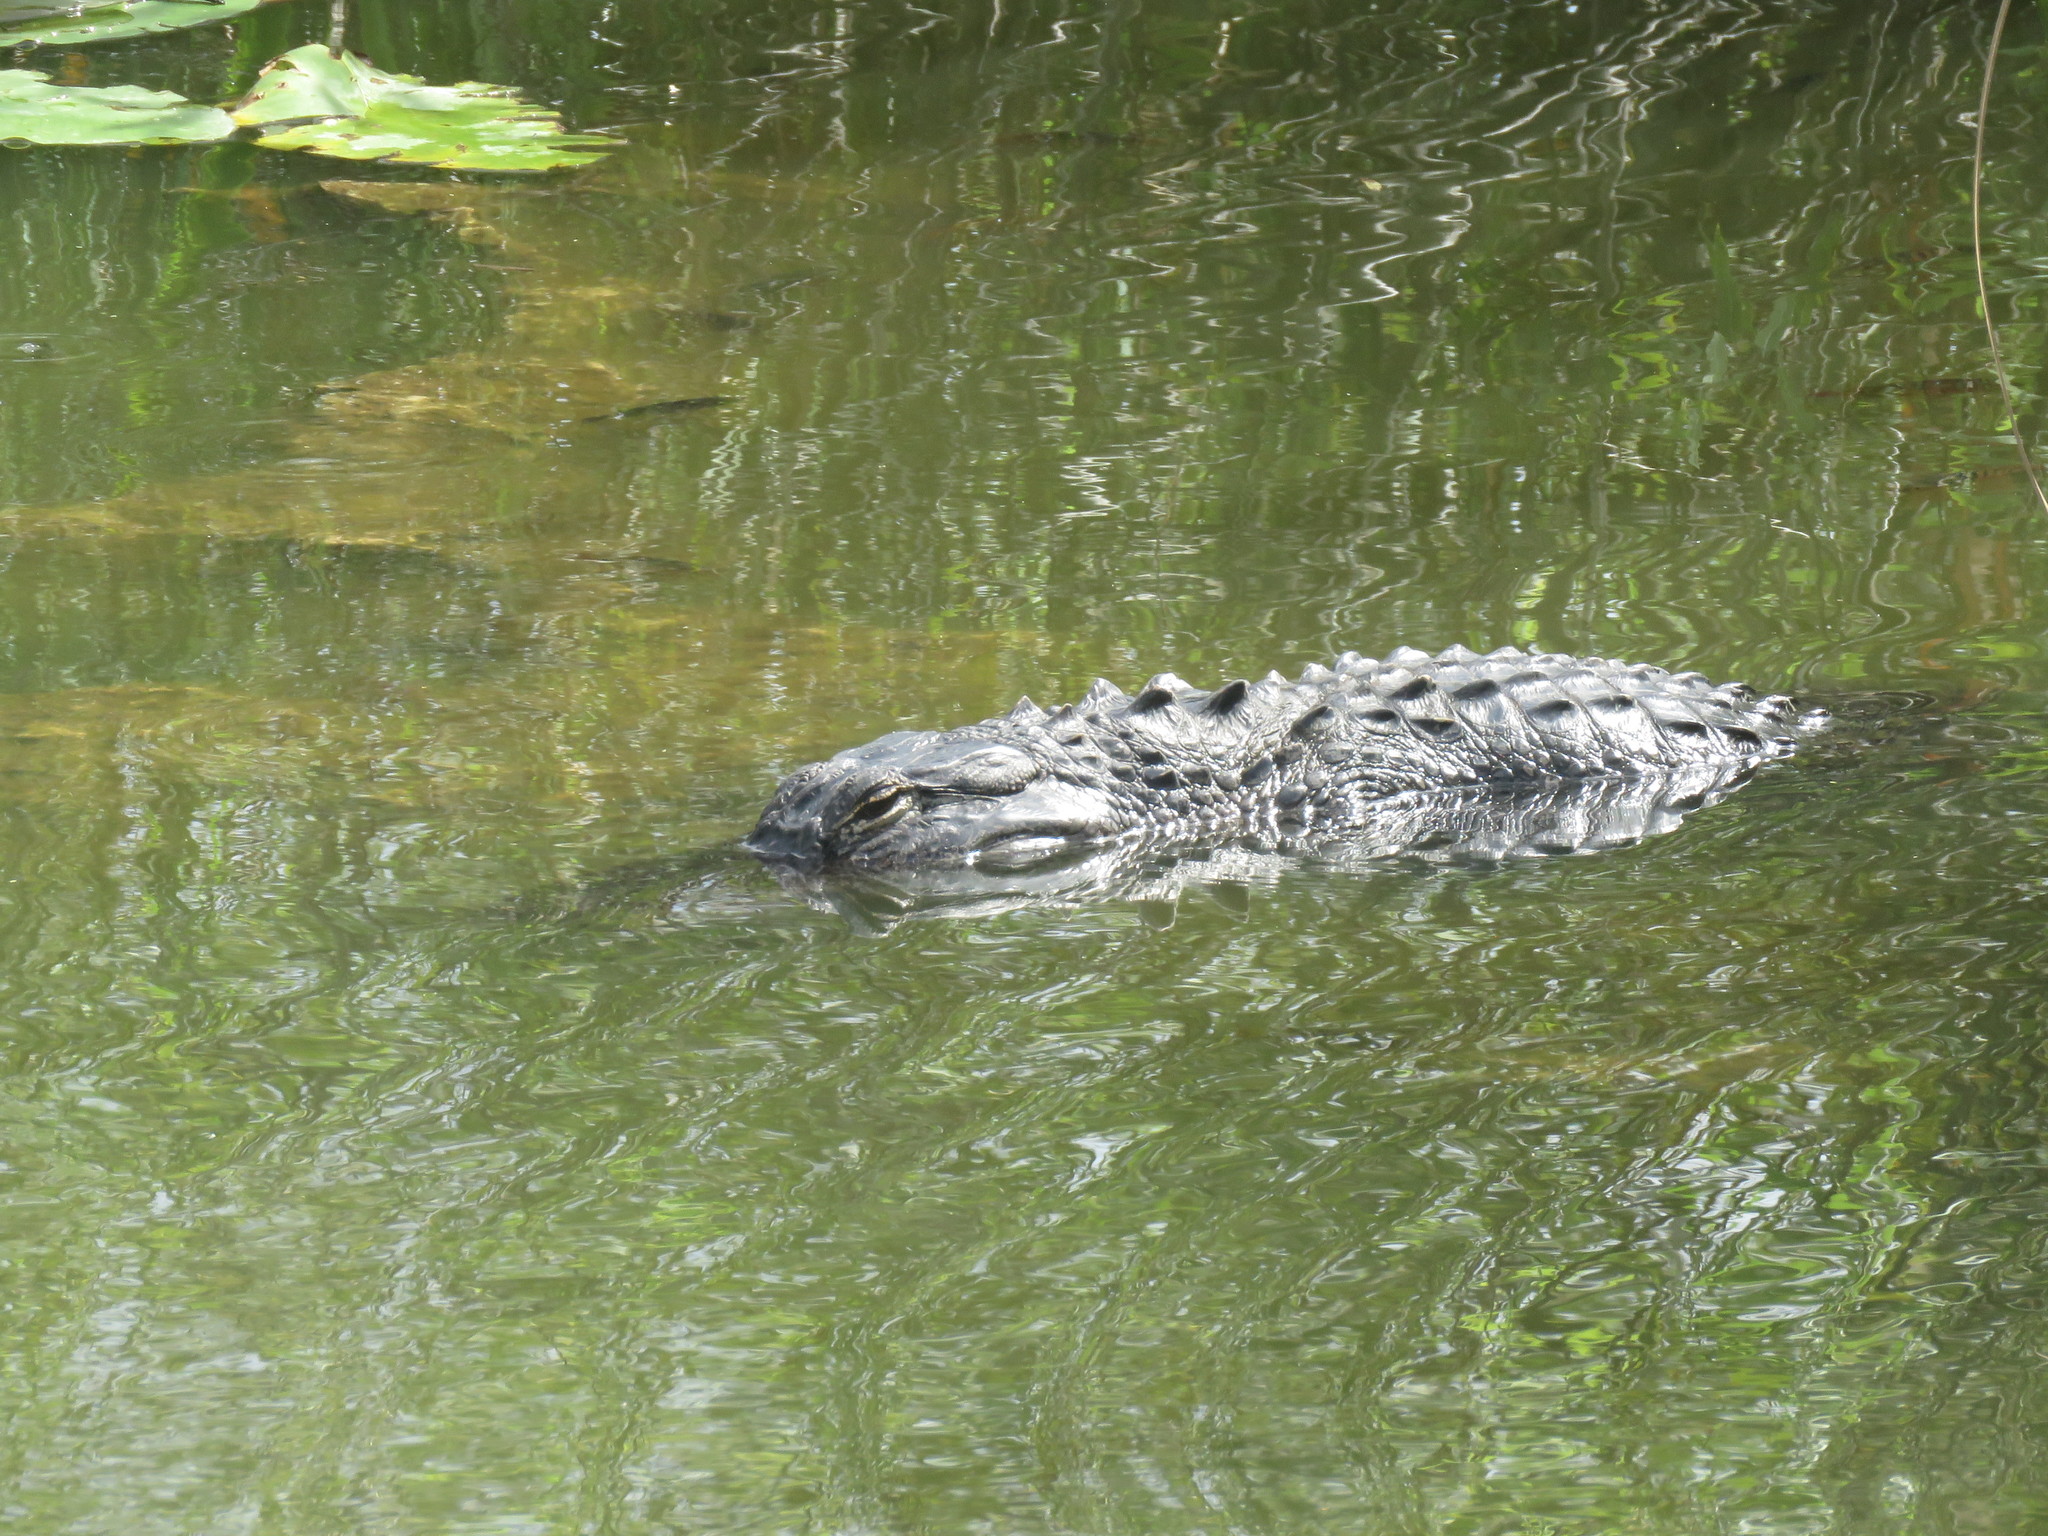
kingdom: Animalia
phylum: Chordata
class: Crocodylia
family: Alligatoridae
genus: Alligator
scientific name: Alligator mississippiensis
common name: American alligator
